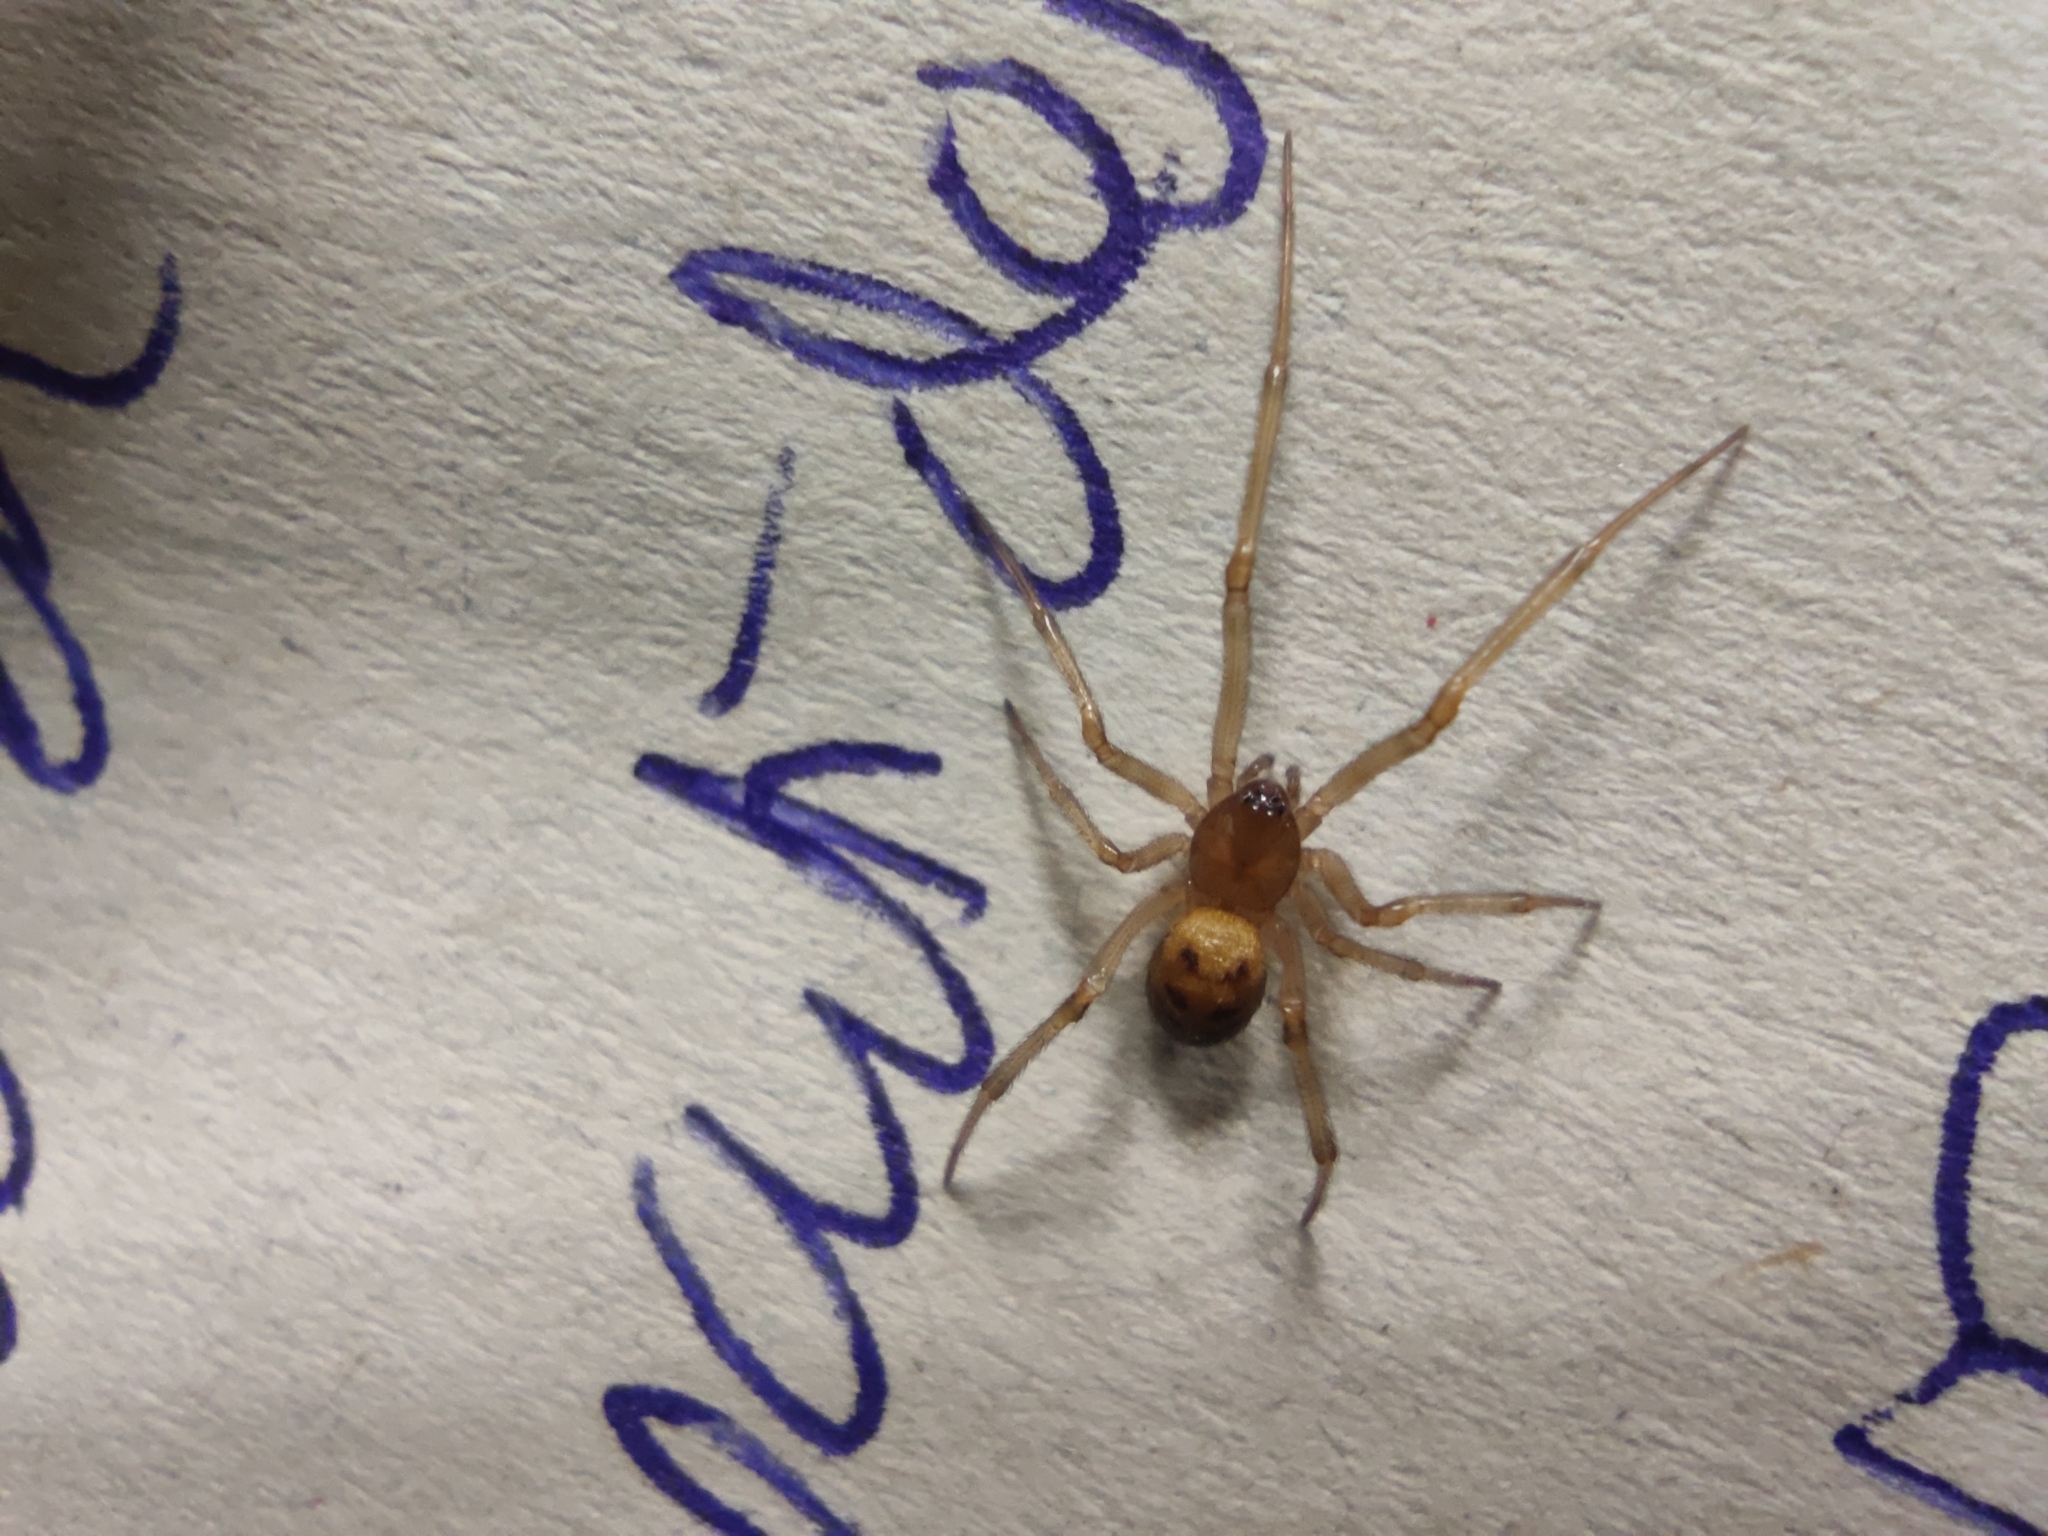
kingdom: Animalia
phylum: Arthropoda
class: Arachnida
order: Araneae
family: Theridiidae
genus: Steatoda
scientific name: Steatoda triangulosa
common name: Triangulate bud spider
